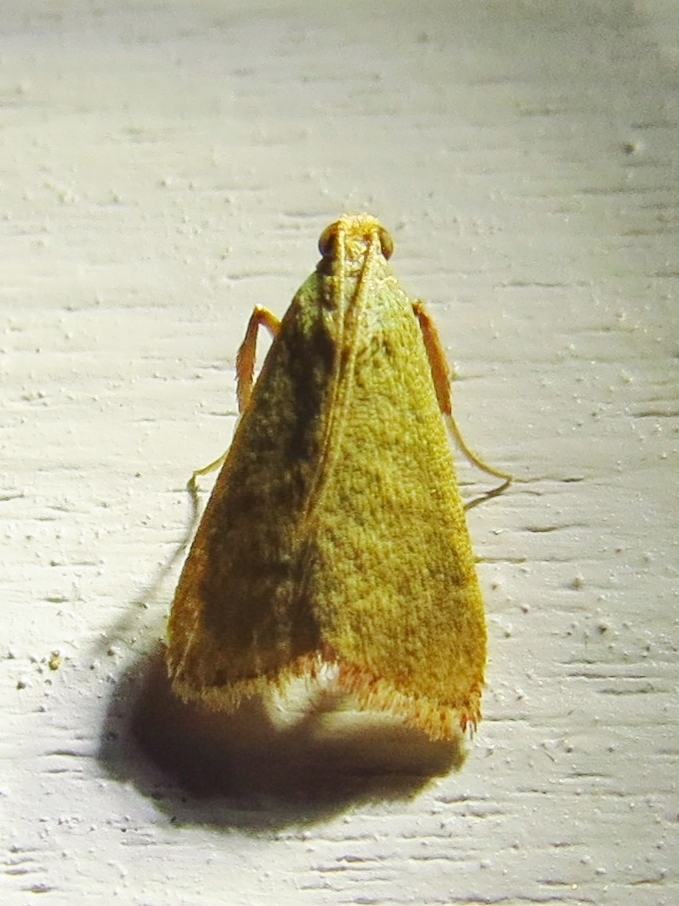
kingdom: Animalia
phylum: Arthropoda
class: Insecta
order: Lepidoptera
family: Pyralidae
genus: Arta
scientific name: Arta olivalis
